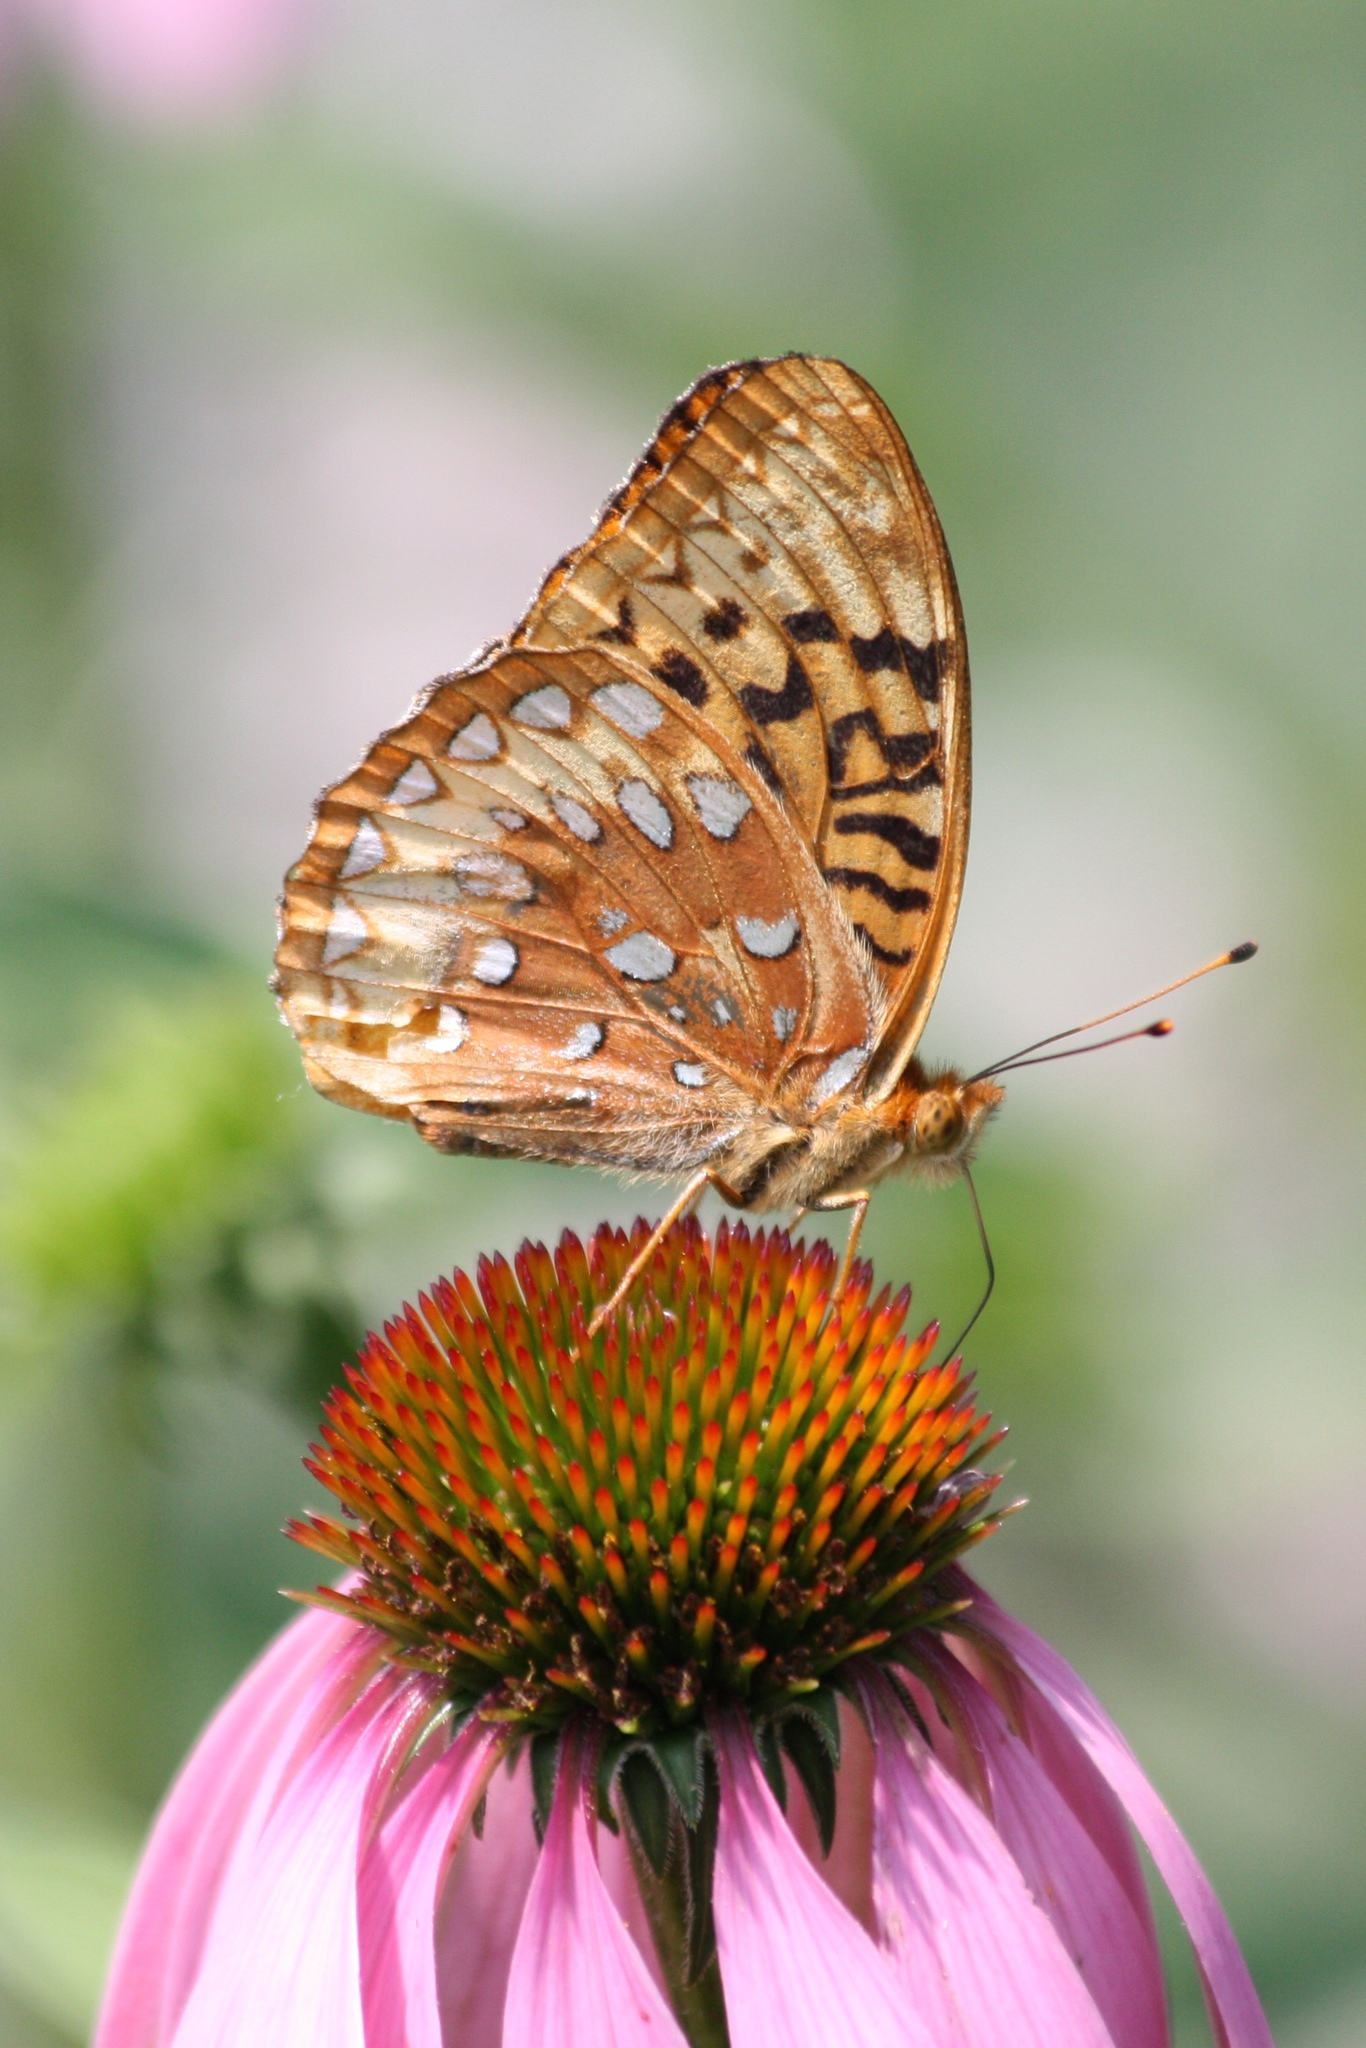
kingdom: Animalia
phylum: Arthropoda
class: Insecta
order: Lepidoptera
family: Nymphalidae
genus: Speyeria
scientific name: Speyeria cybele
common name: Great spangled fritillary
